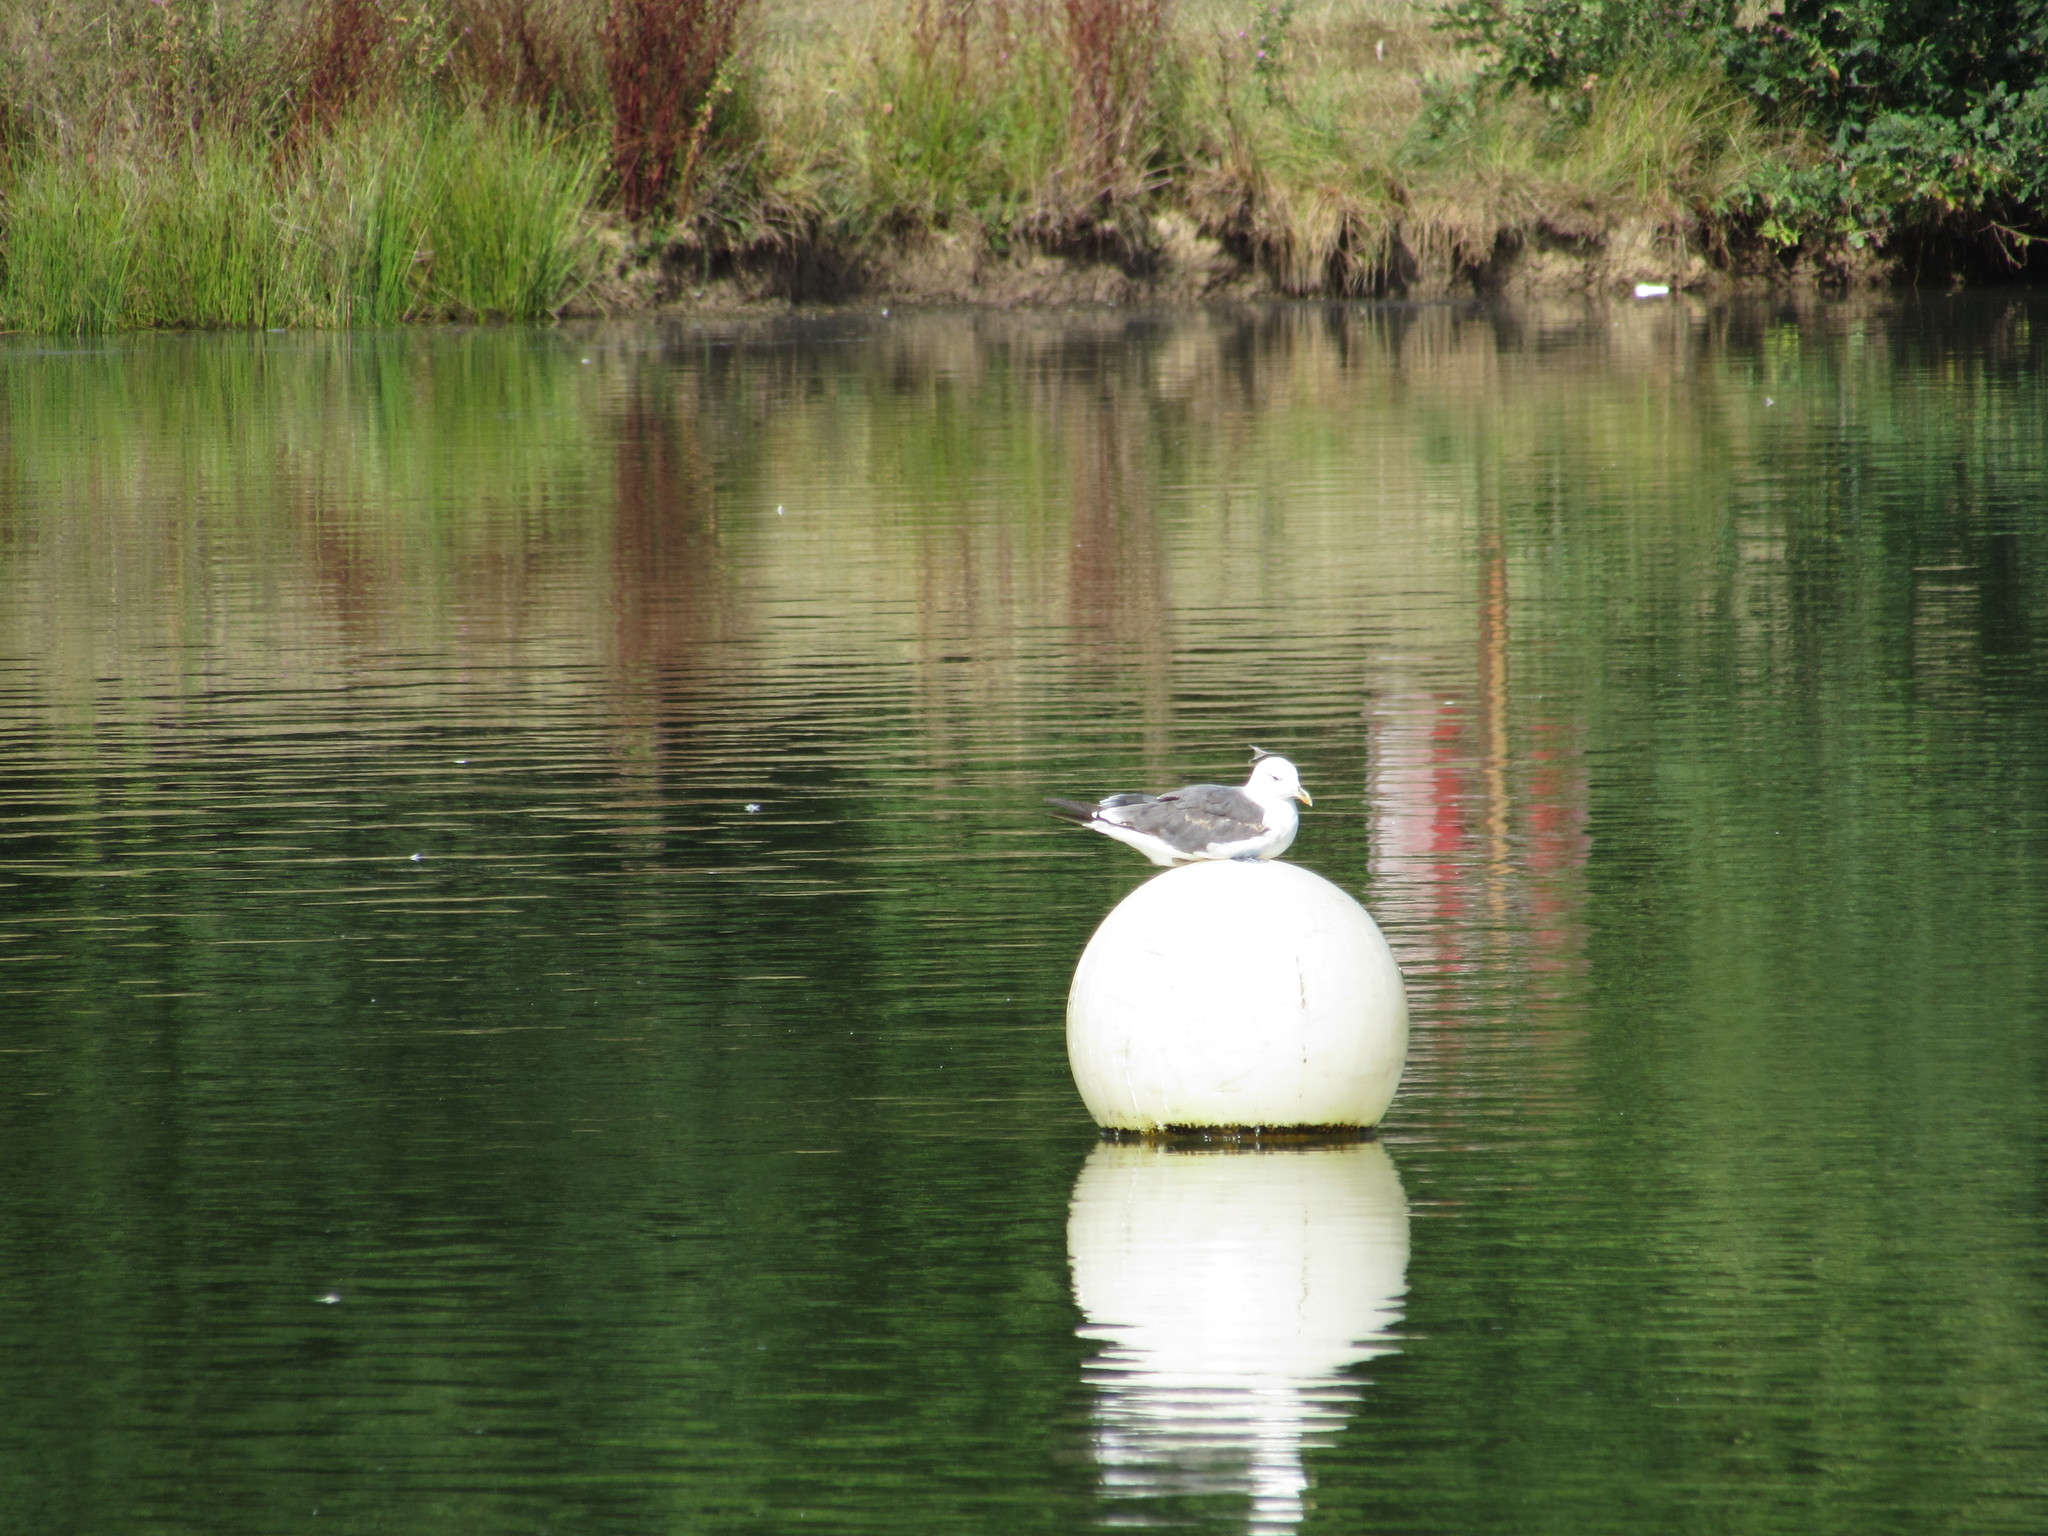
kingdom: Animalia
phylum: Chordata
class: Aves
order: Charadriiformes
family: Laridae
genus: Larus
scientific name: Larus fuscus
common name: Lesser black-backed gull
